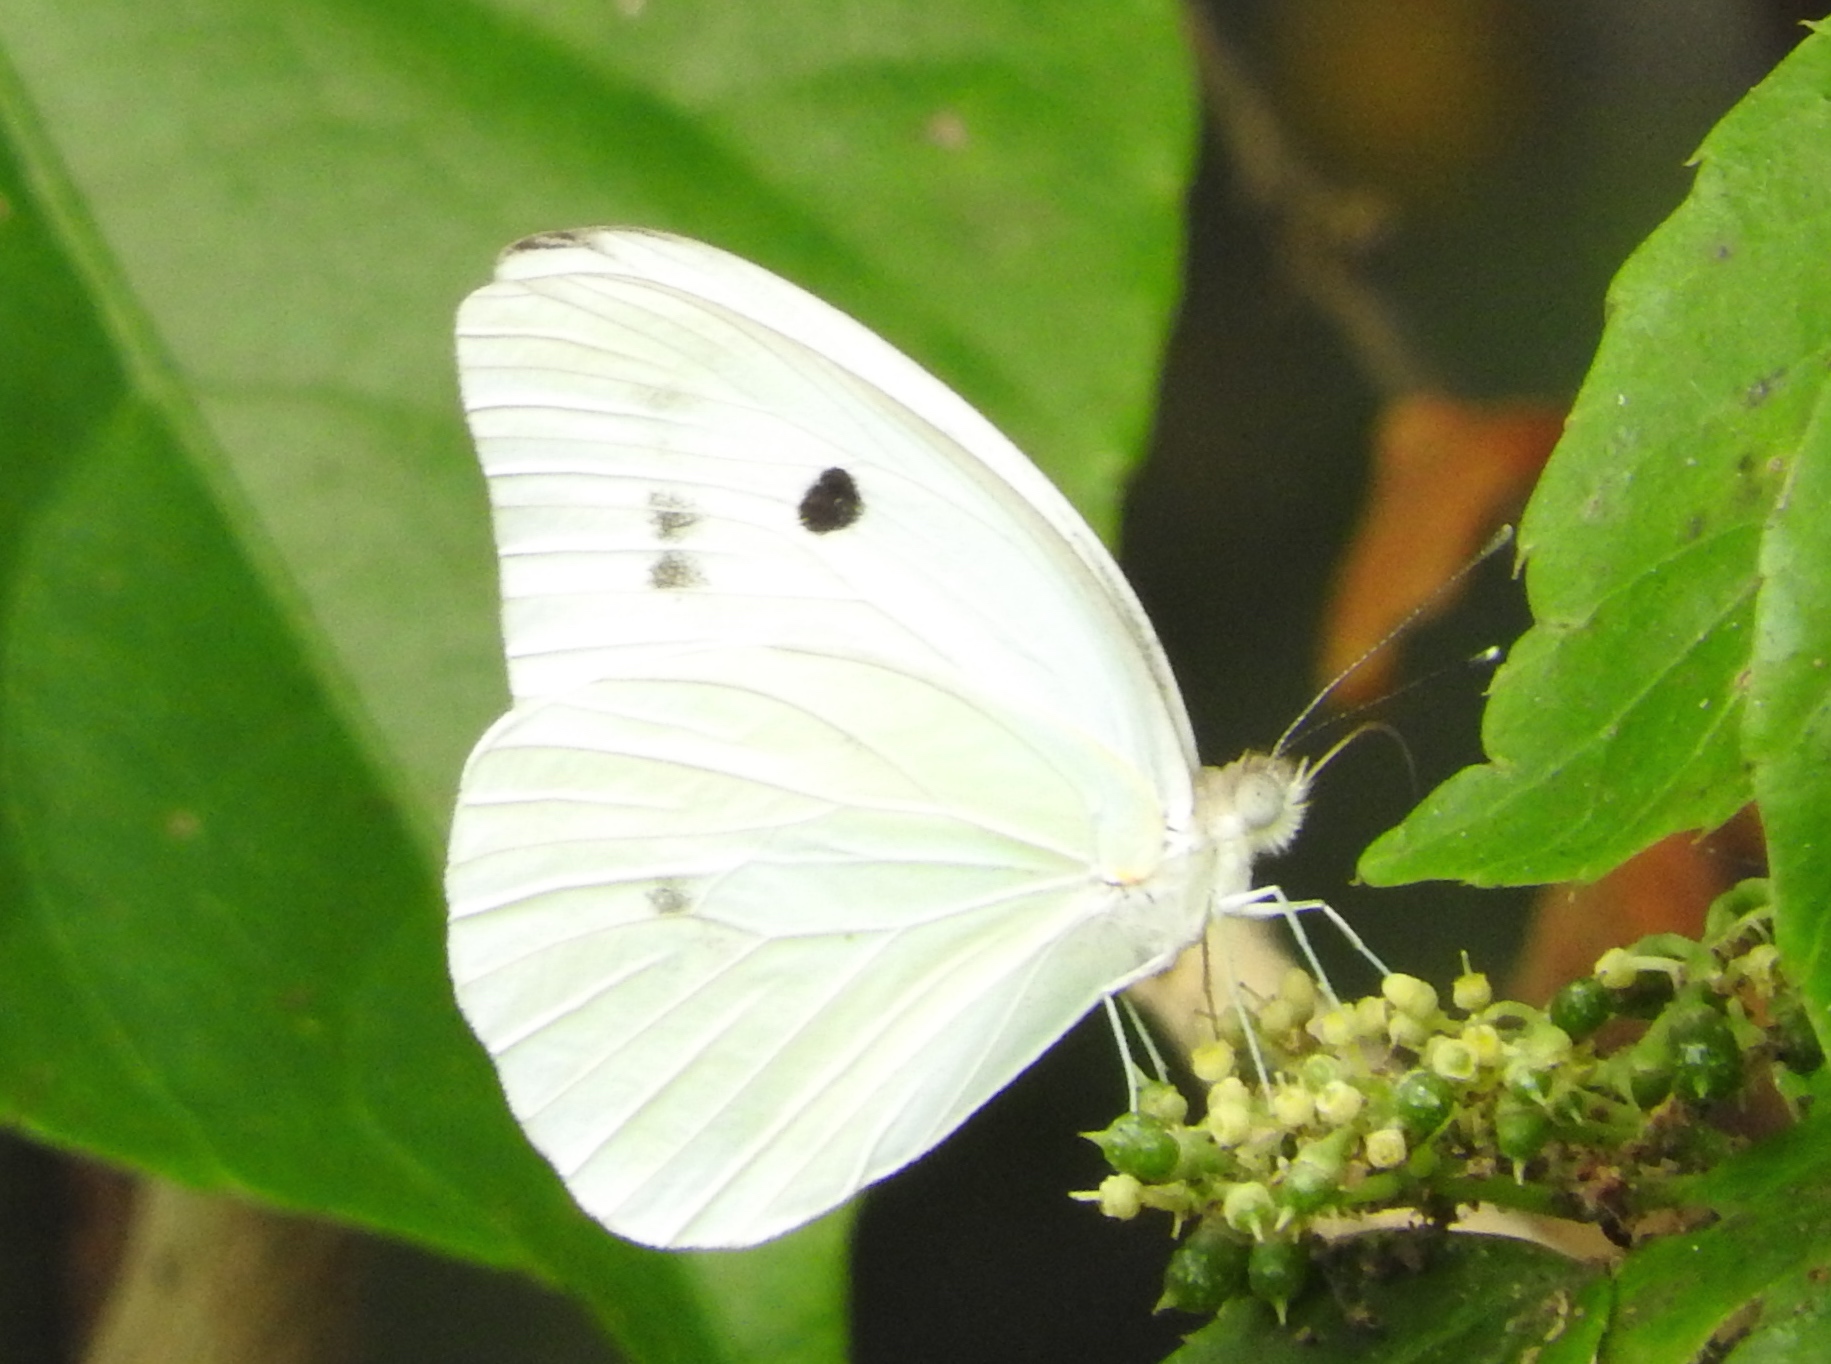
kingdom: Animalia
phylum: Arthropoda
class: Insecta
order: Lepidoptera
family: Pieridae
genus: Ganyra
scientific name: Ganyra josephina
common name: Giant white
